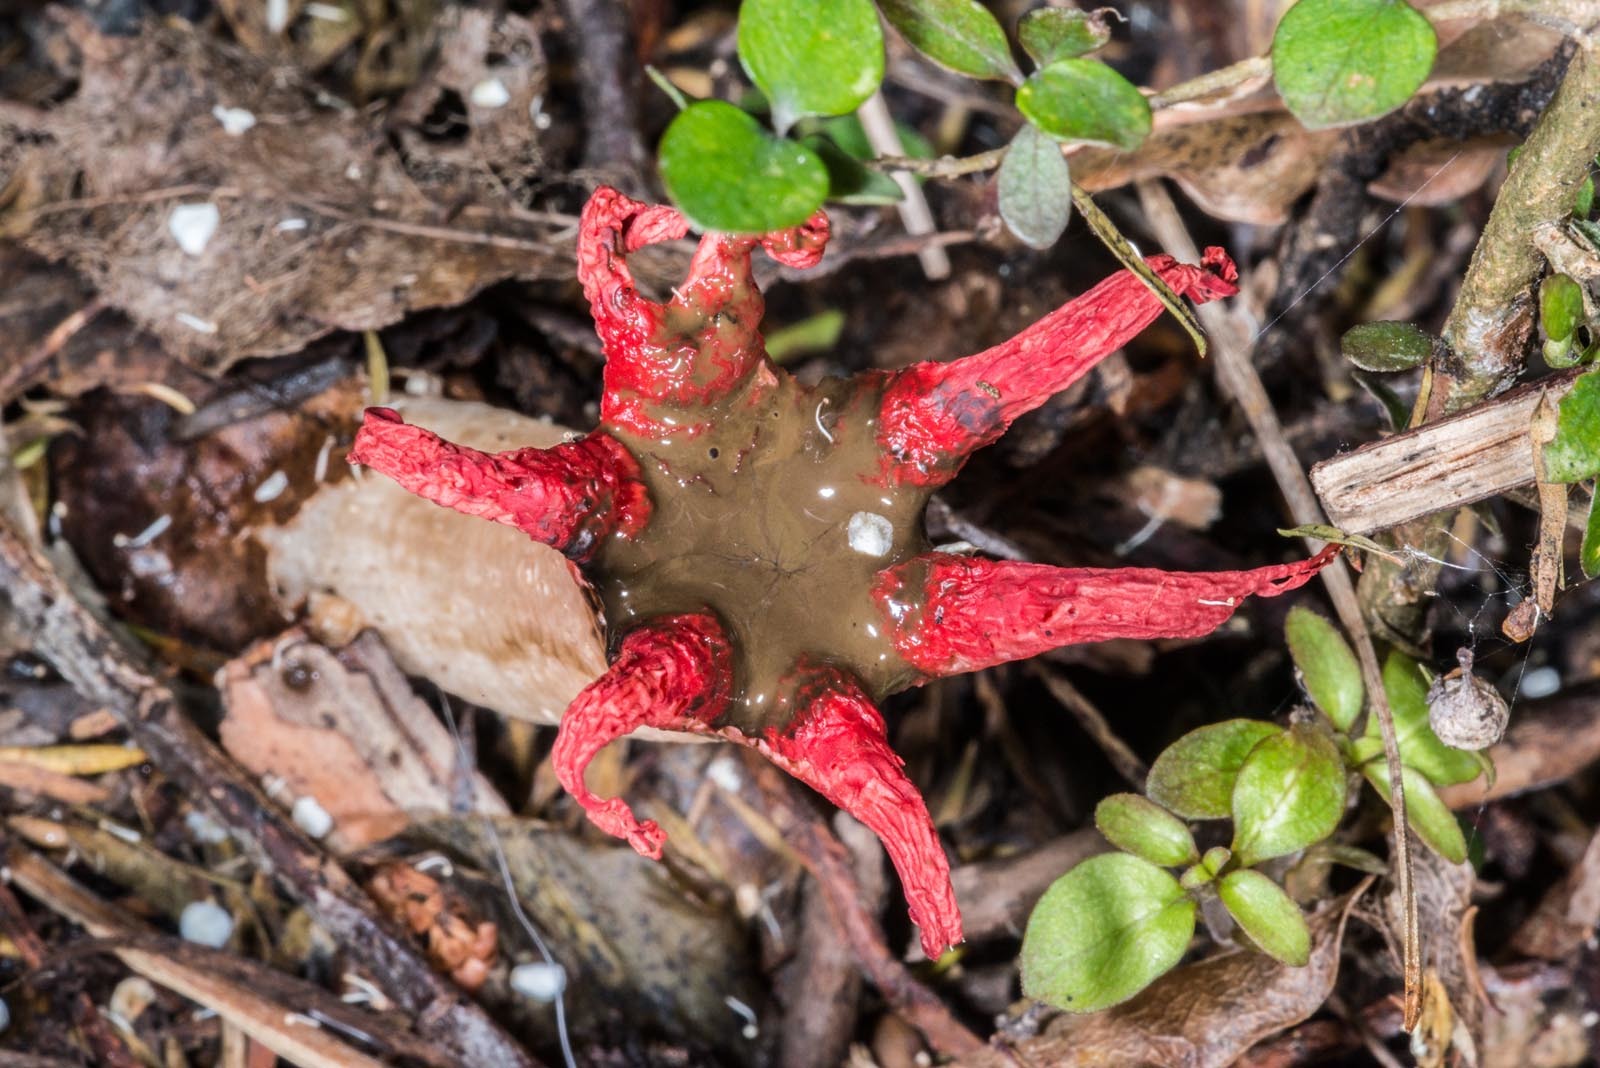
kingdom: Fungi
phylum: Basidiomycota
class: Agaricomycetes
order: Phallales
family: Phallaceae
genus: Aseroe
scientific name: Aseroe rubra
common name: Starfish fungus
